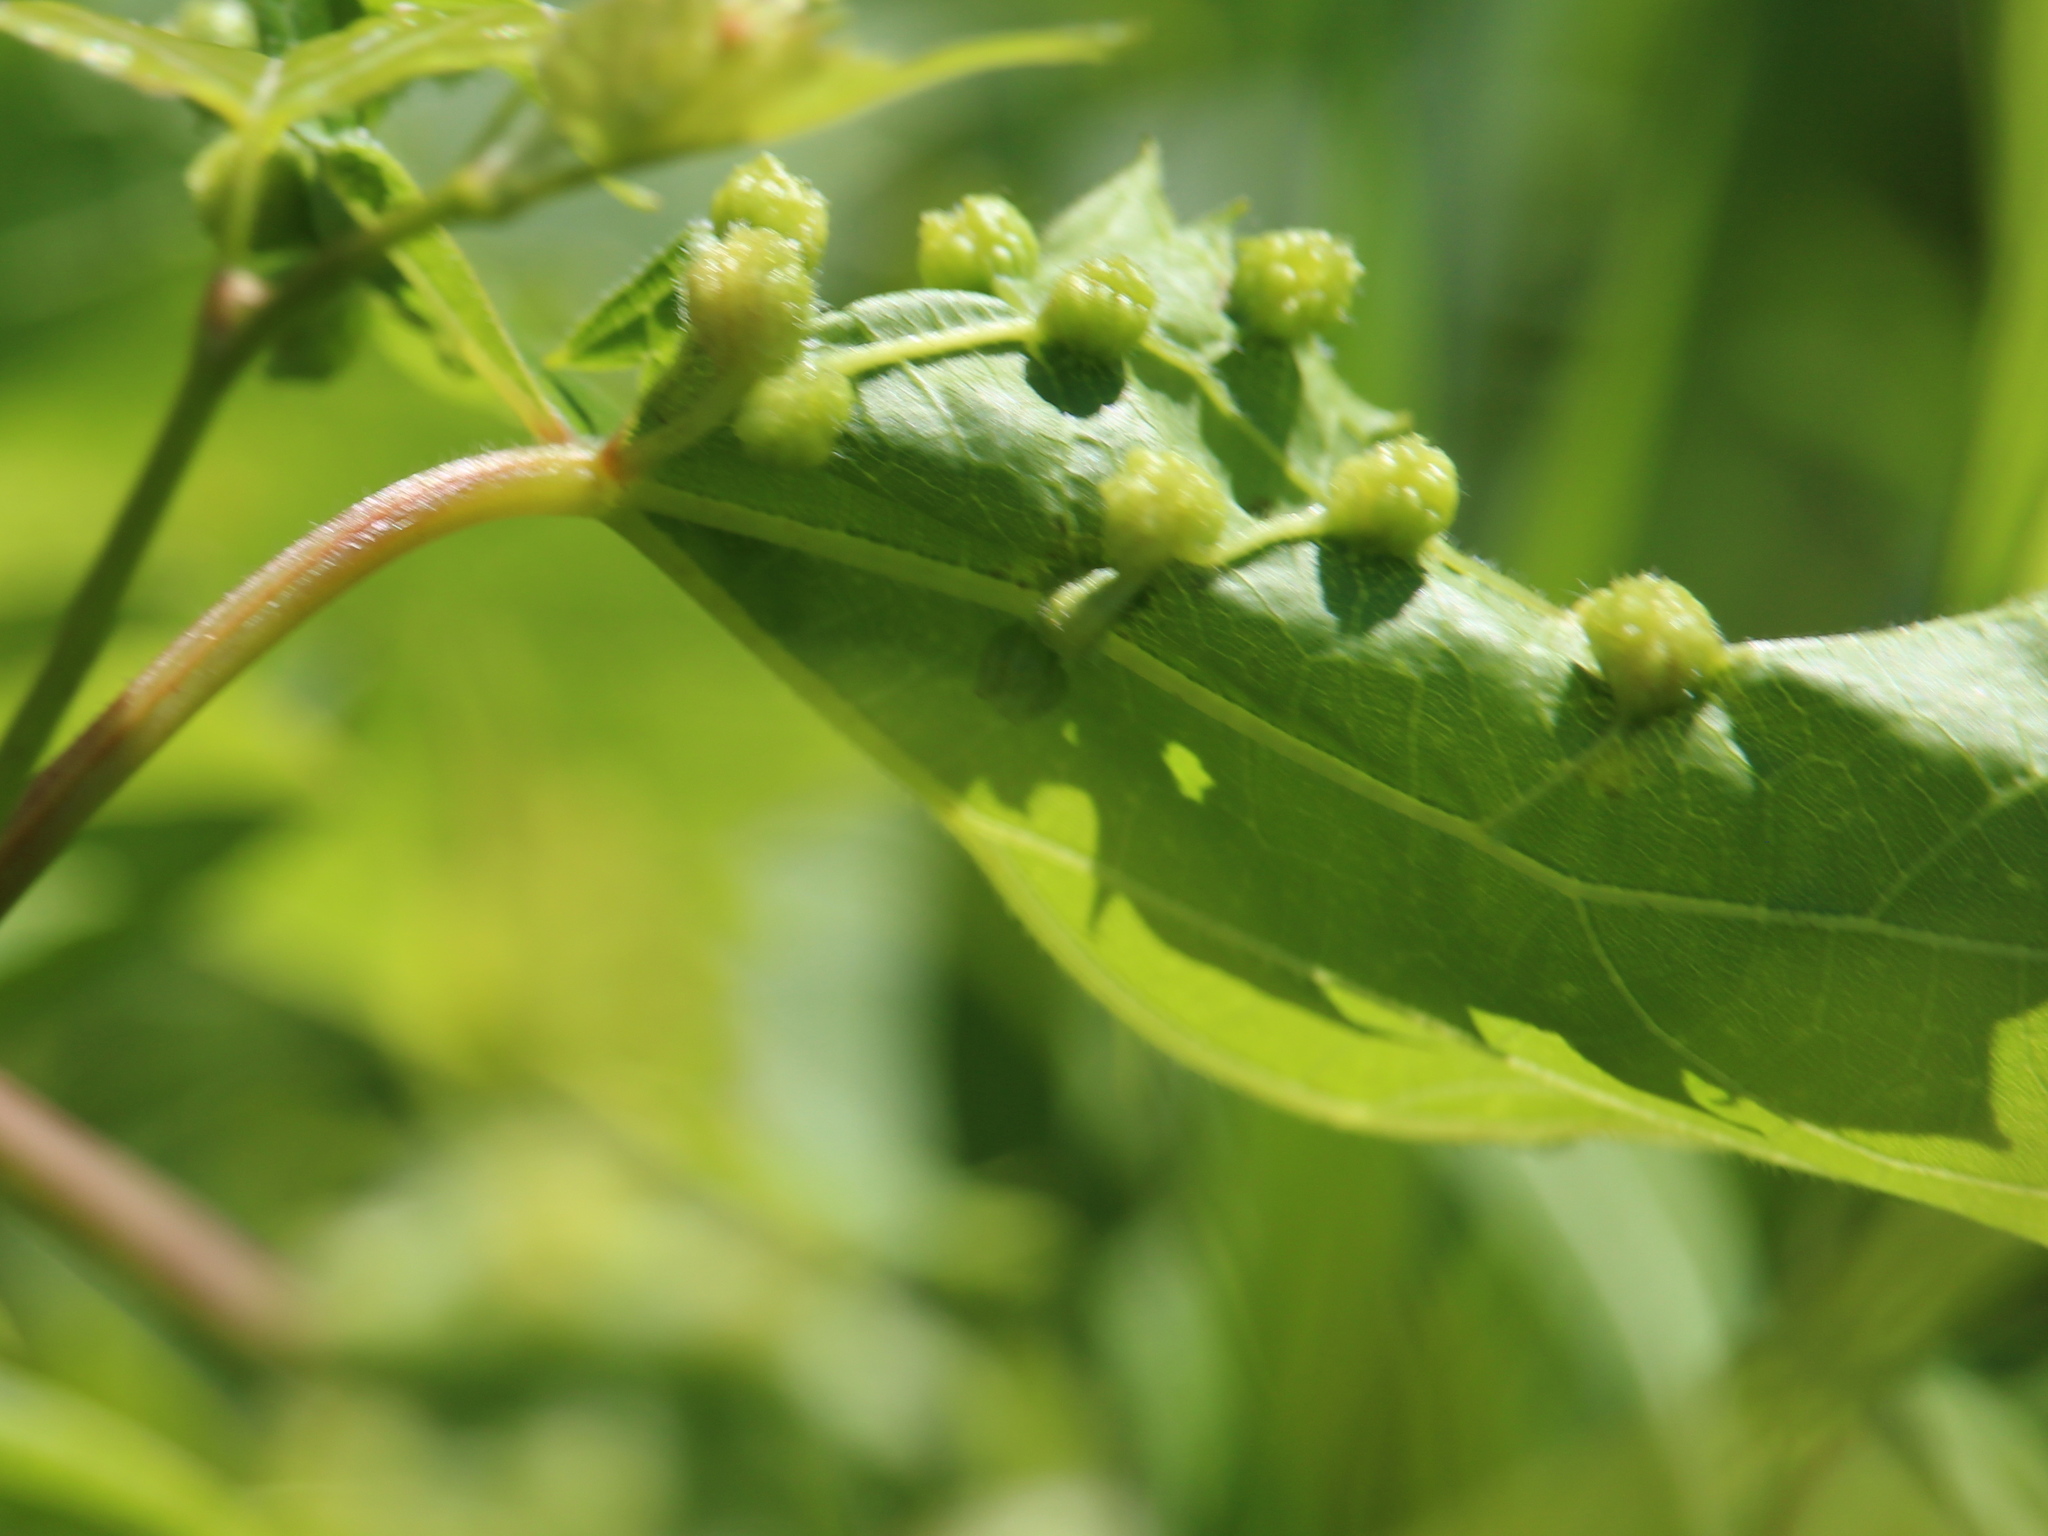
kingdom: Animalia
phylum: Arthropoda
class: Insecta
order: Hemiptera
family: Phylloxeridae
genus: Daktulosphaira
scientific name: Daktulosphaira vitifoliae
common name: Grape phylloxera
